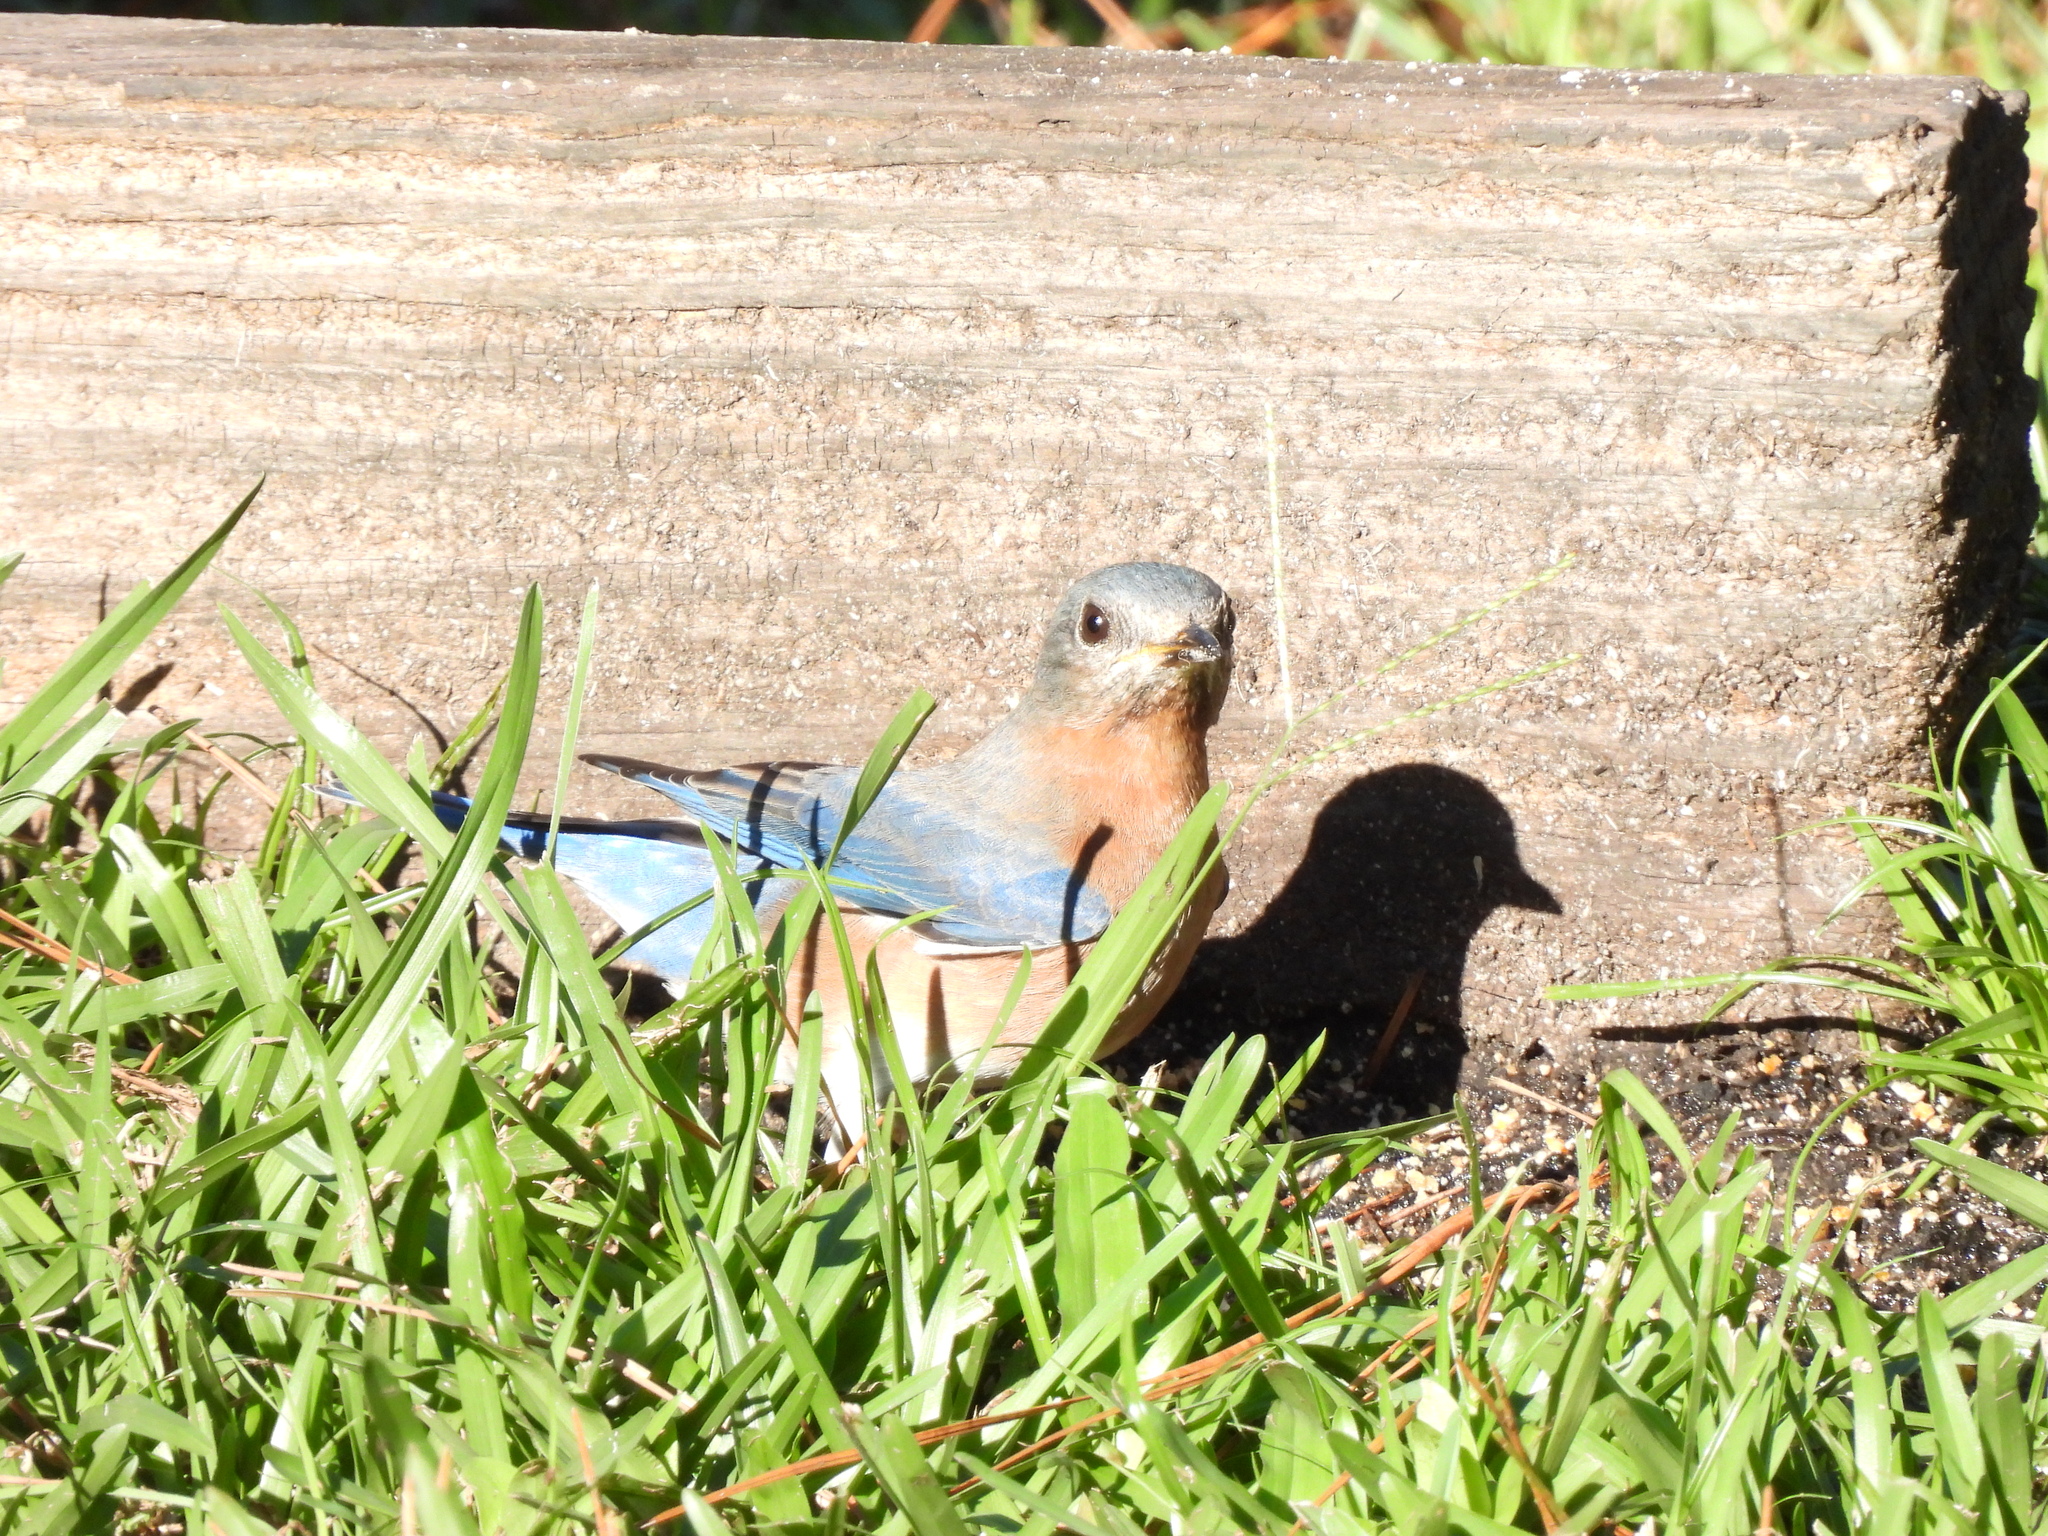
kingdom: Animalia
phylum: Chordata
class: Aves
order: Passeriformes
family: Turdidae
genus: Sialia
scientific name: Sialia sialis
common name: Eastern bluebird
